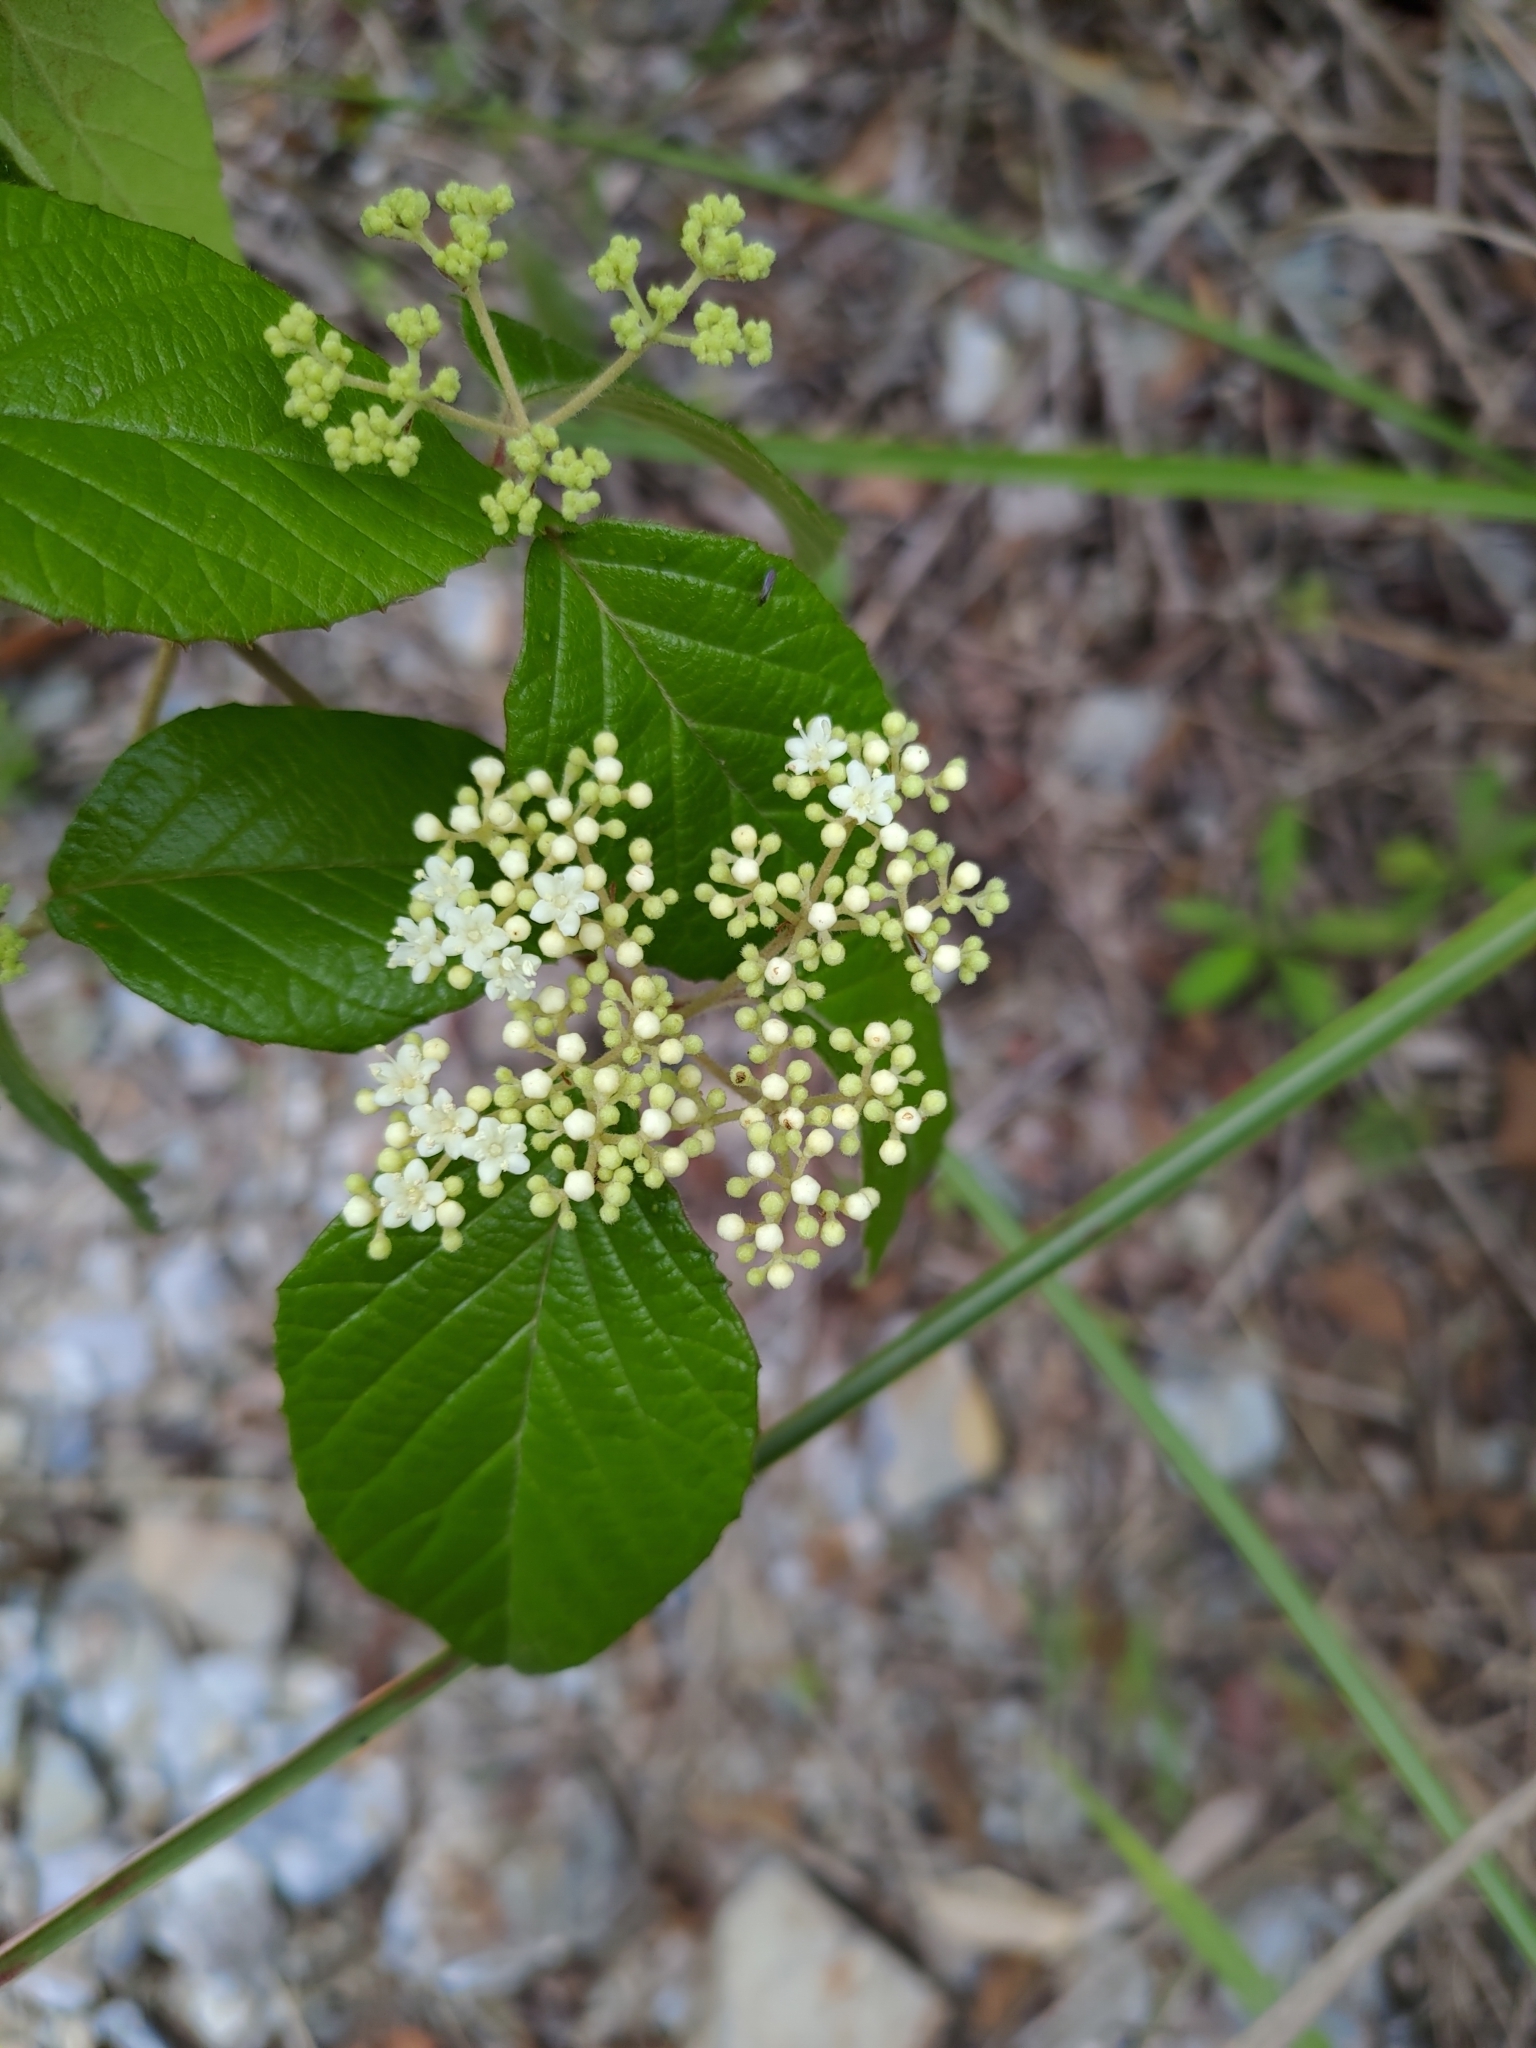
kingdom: Plantae
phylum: Tracheophyta
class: Magnoliopsida
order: Dipsacales
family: Viburnaceae
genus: Viburnum
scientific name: Viburnum luzonicum
